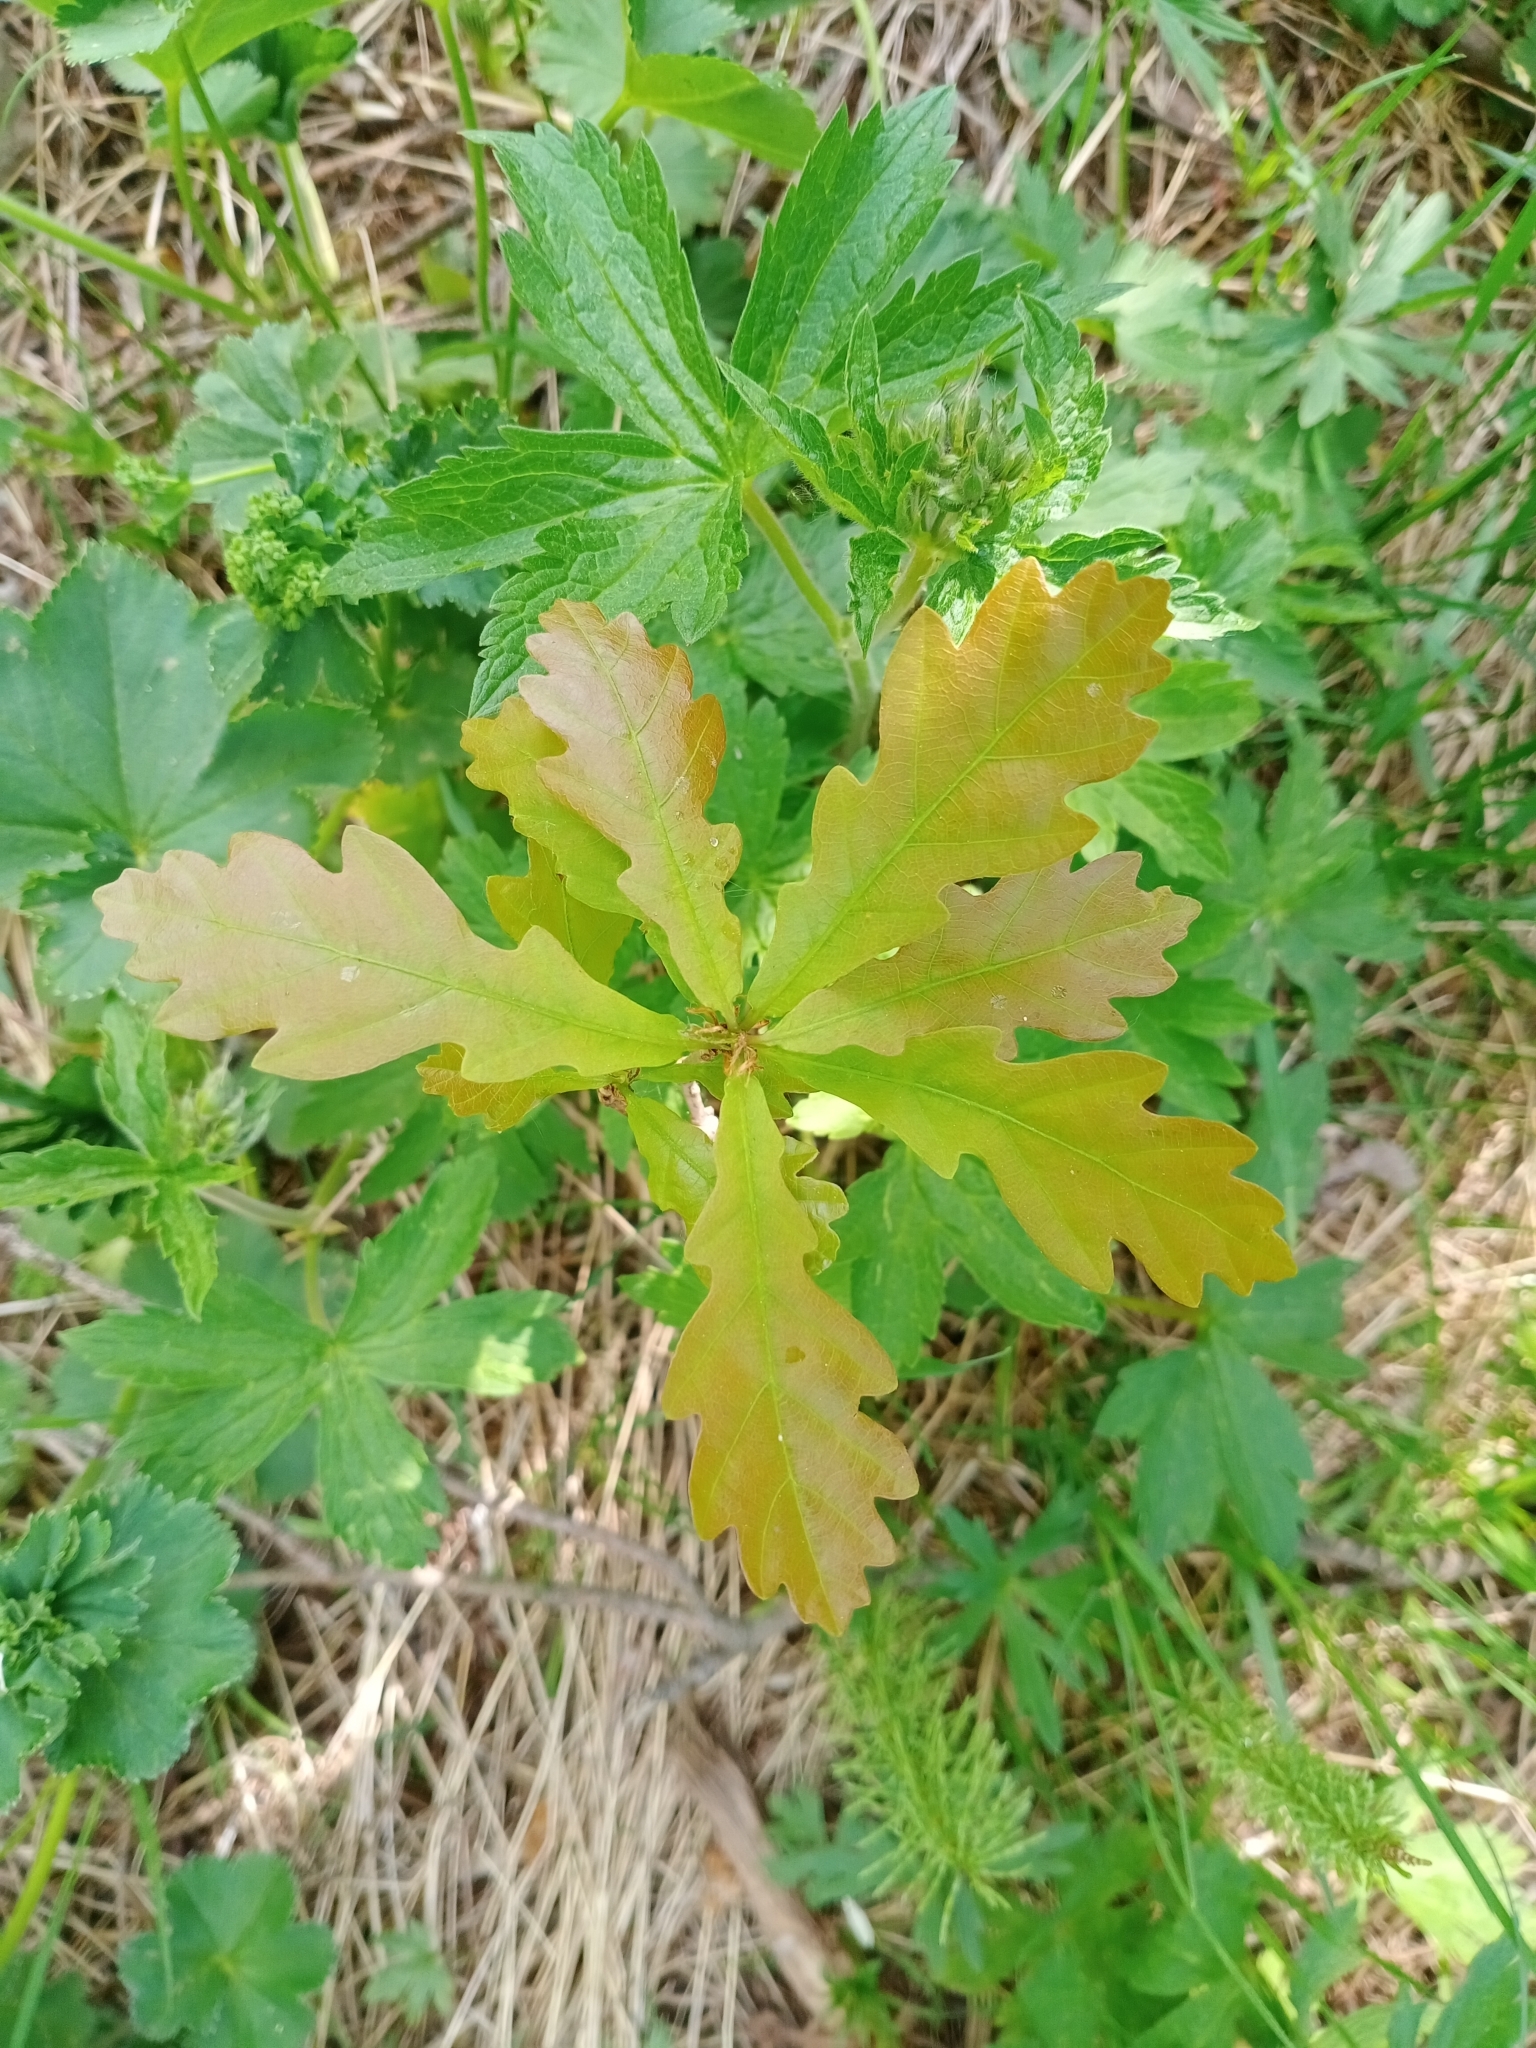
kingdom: Plantae
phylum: Tracheophyta
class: Magnoliopsida
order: Fagales
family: Fagaceae
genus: Quercus
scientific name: Quercus robur
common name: Pedunculate oak
